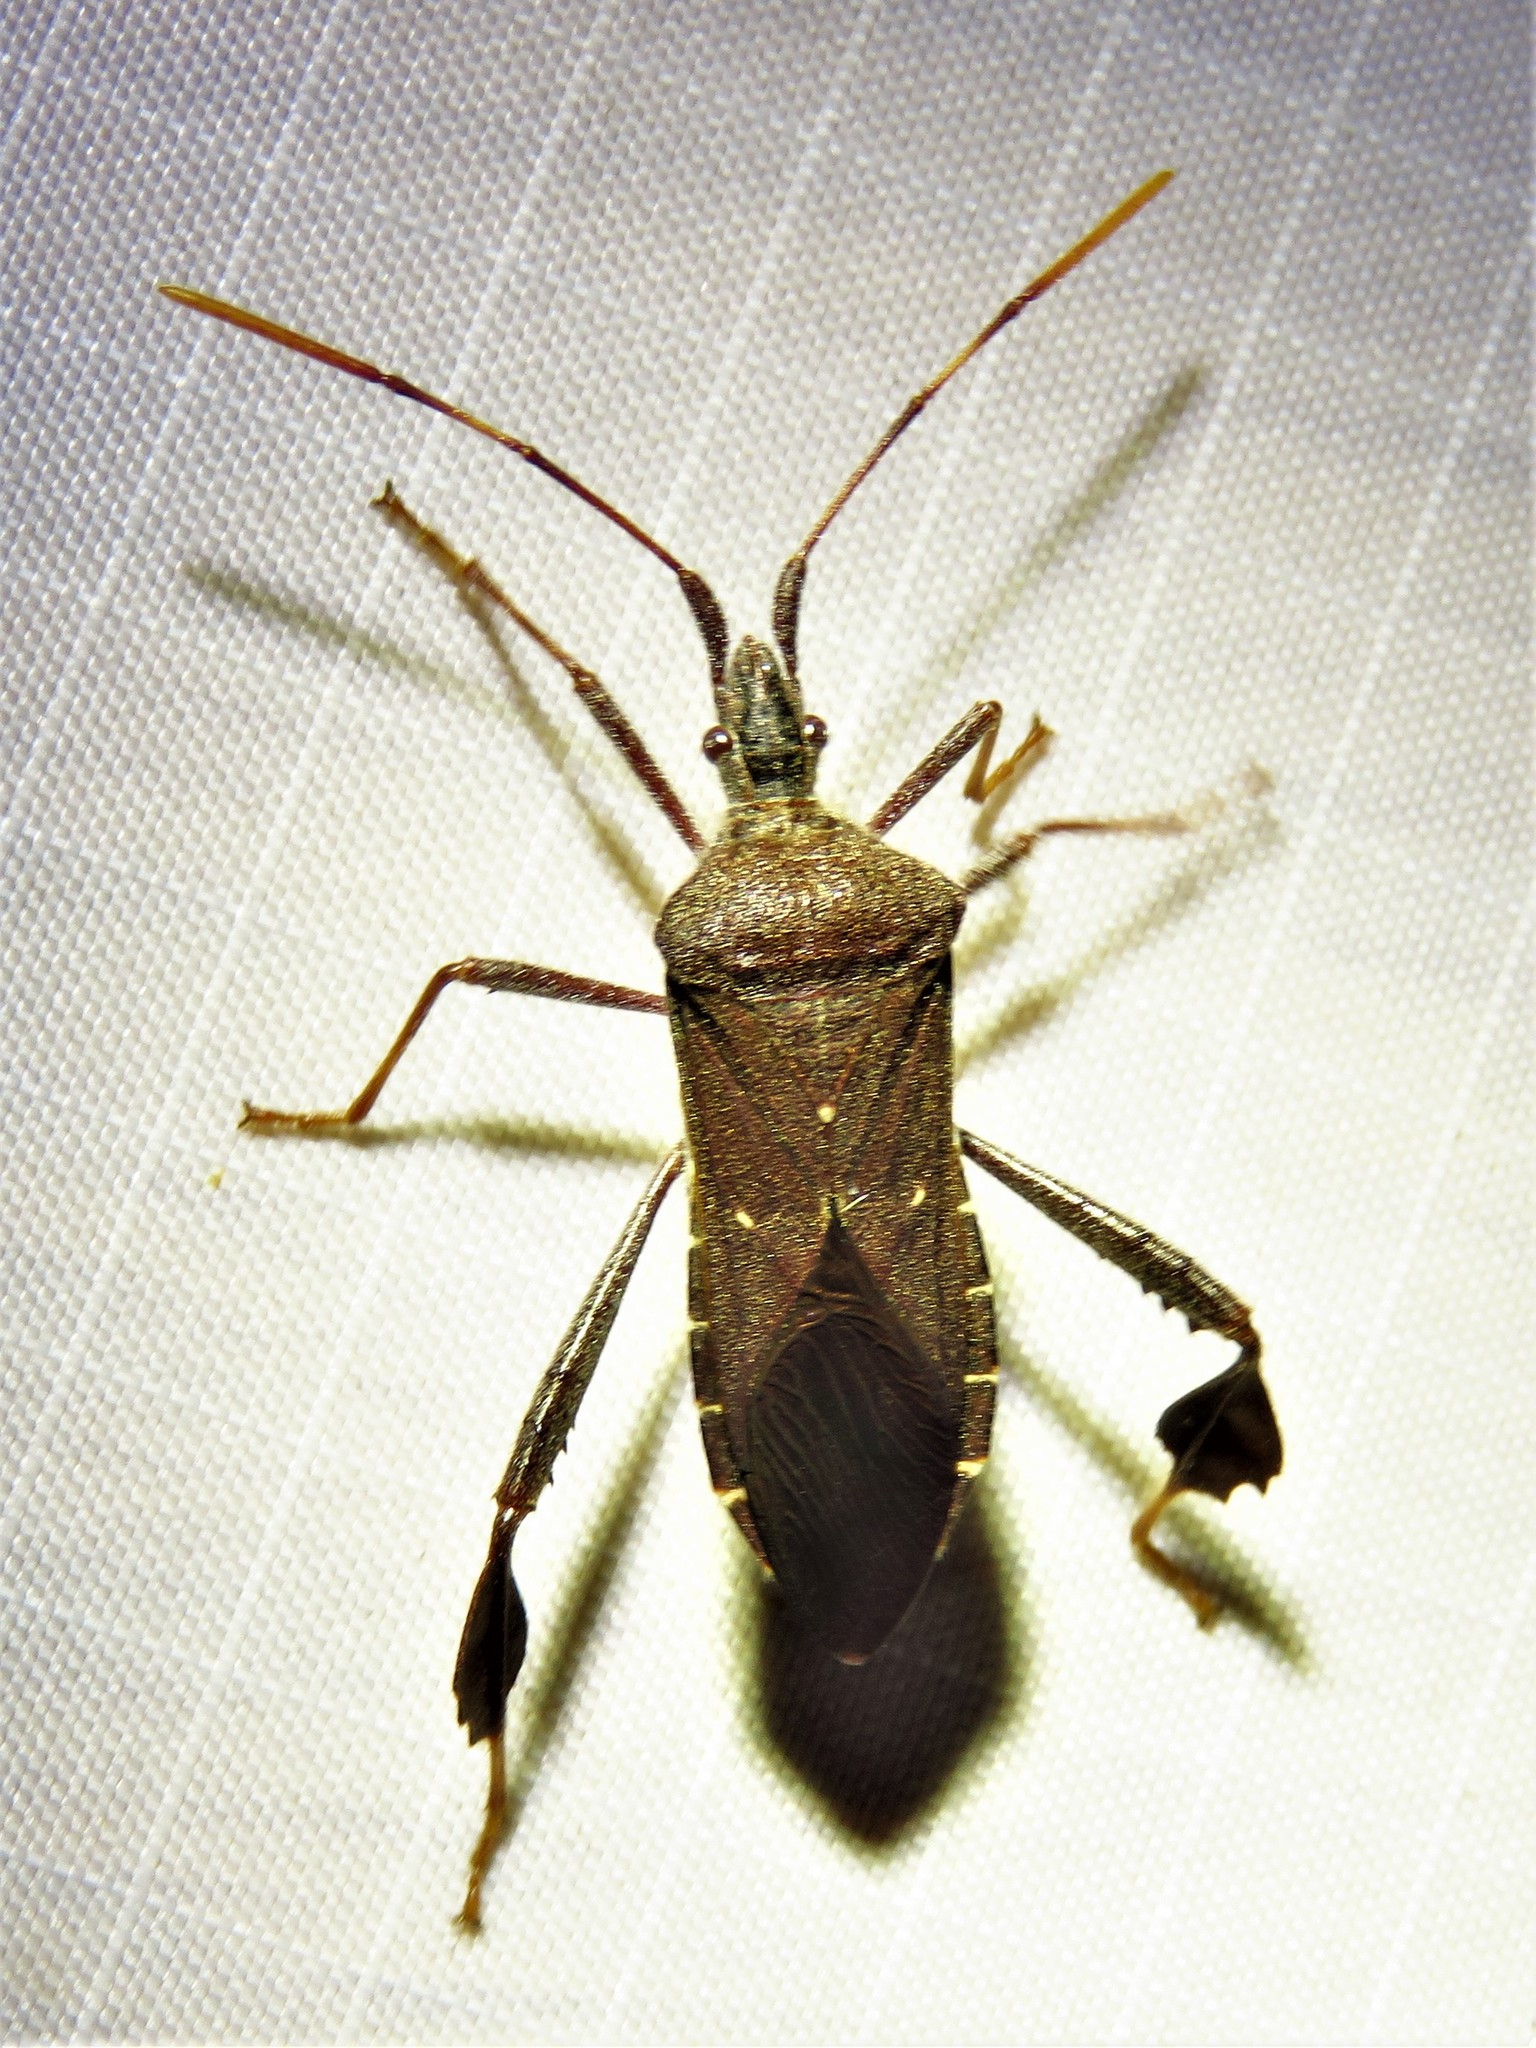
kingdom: Animalia
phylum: Arthropoda
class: Insecta
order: Hemiptera
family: Coreidae
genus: Leptoglossus
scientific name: Leptoglossus oppositus
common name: Northern leaf-footed bug
